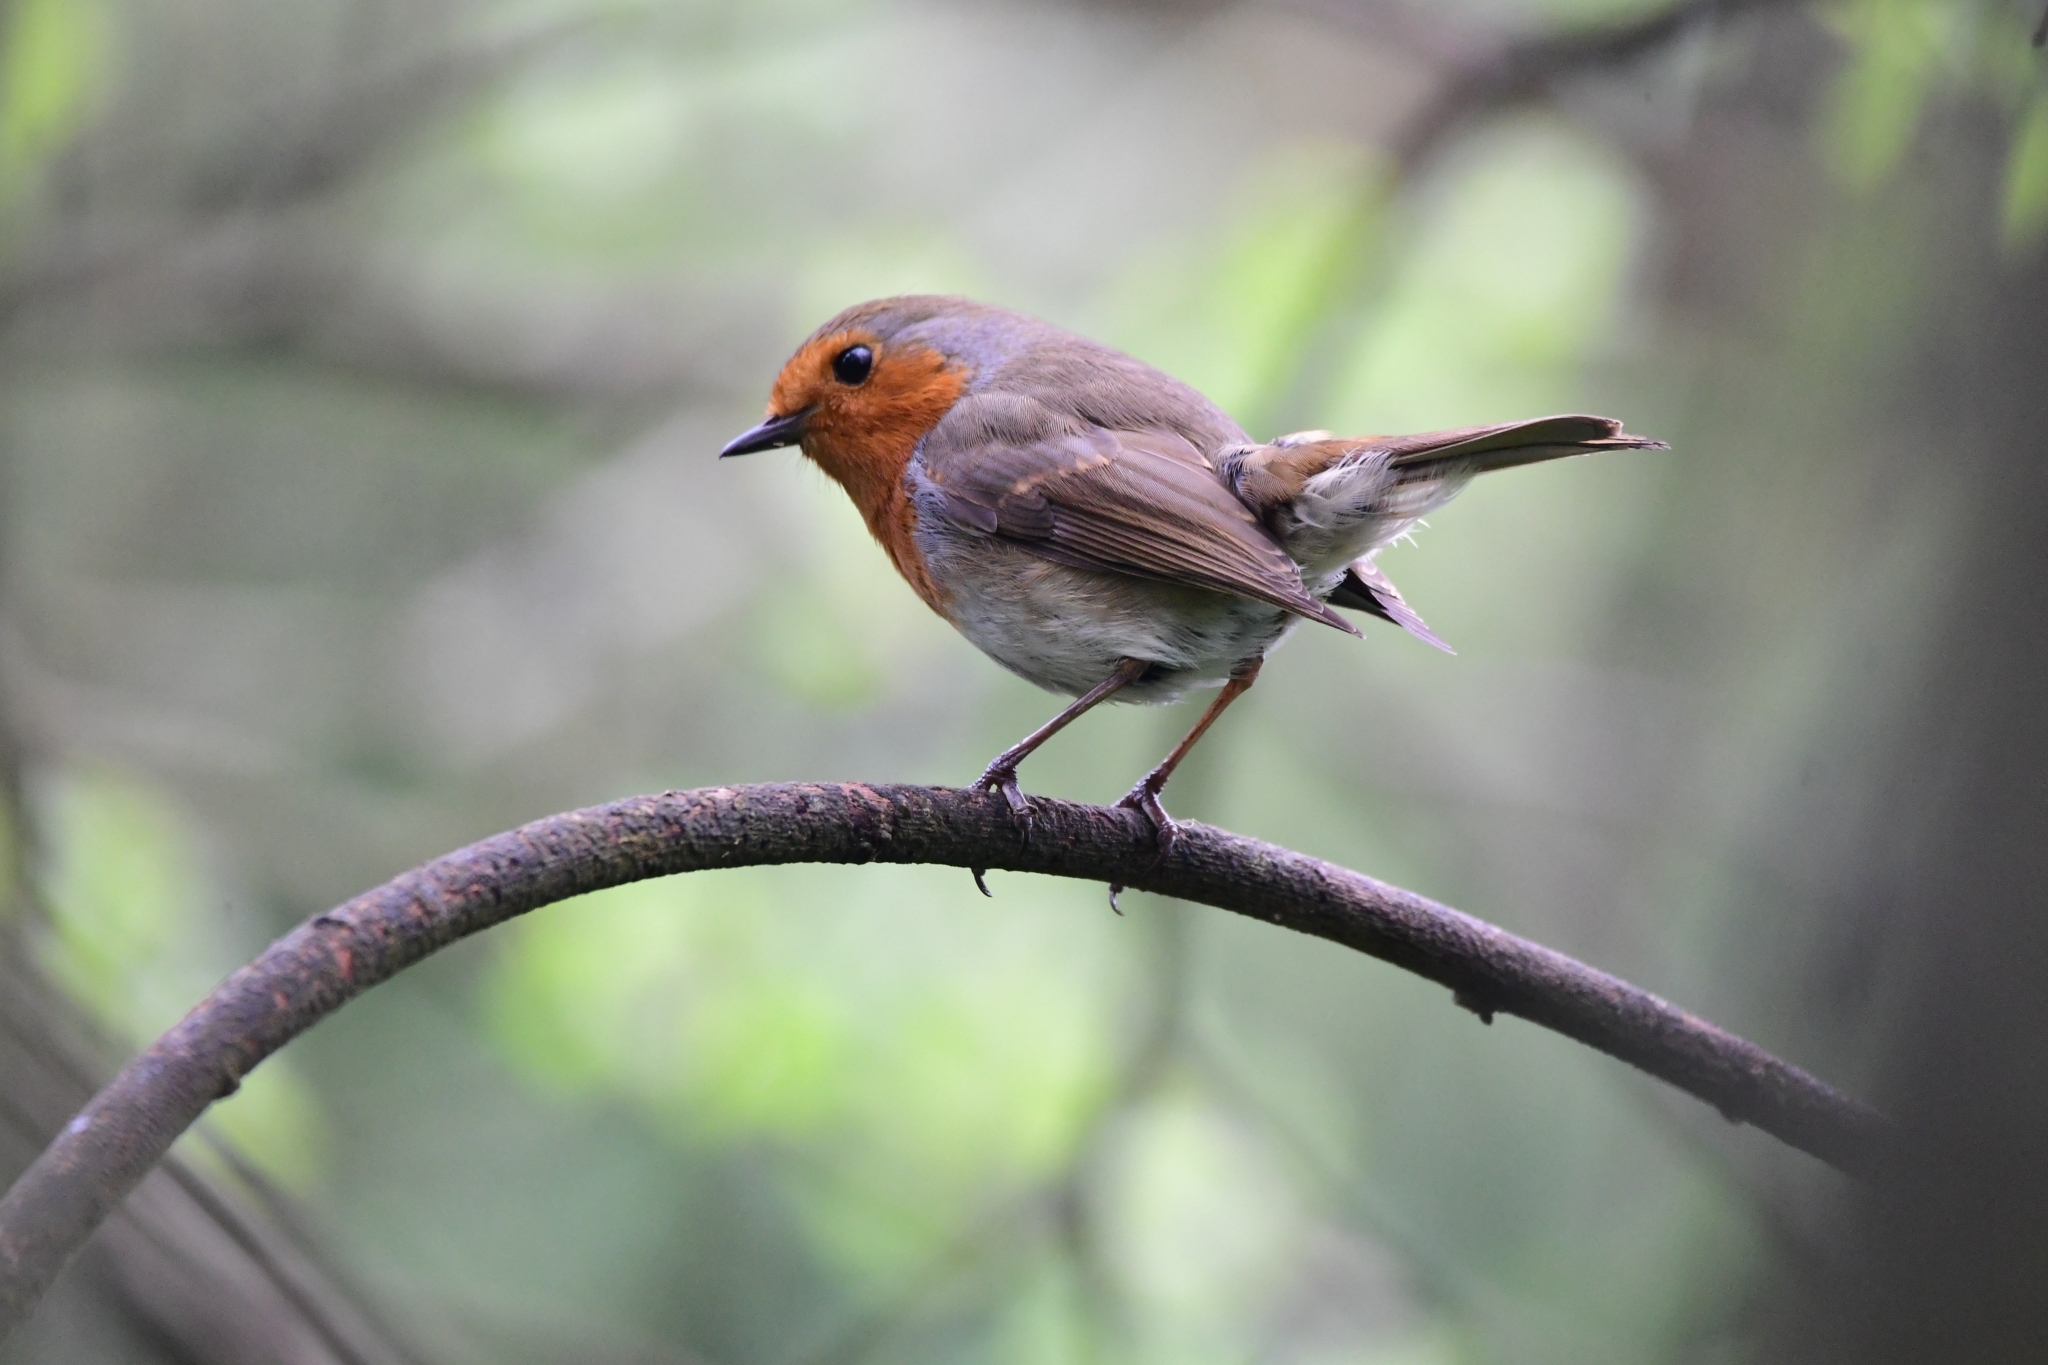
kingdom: Animalia
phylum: Chordata
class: Aves
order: Passeriformes
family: Muscicapidae
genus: Erithacus
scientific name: Erithacus rubecula
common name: European robin
